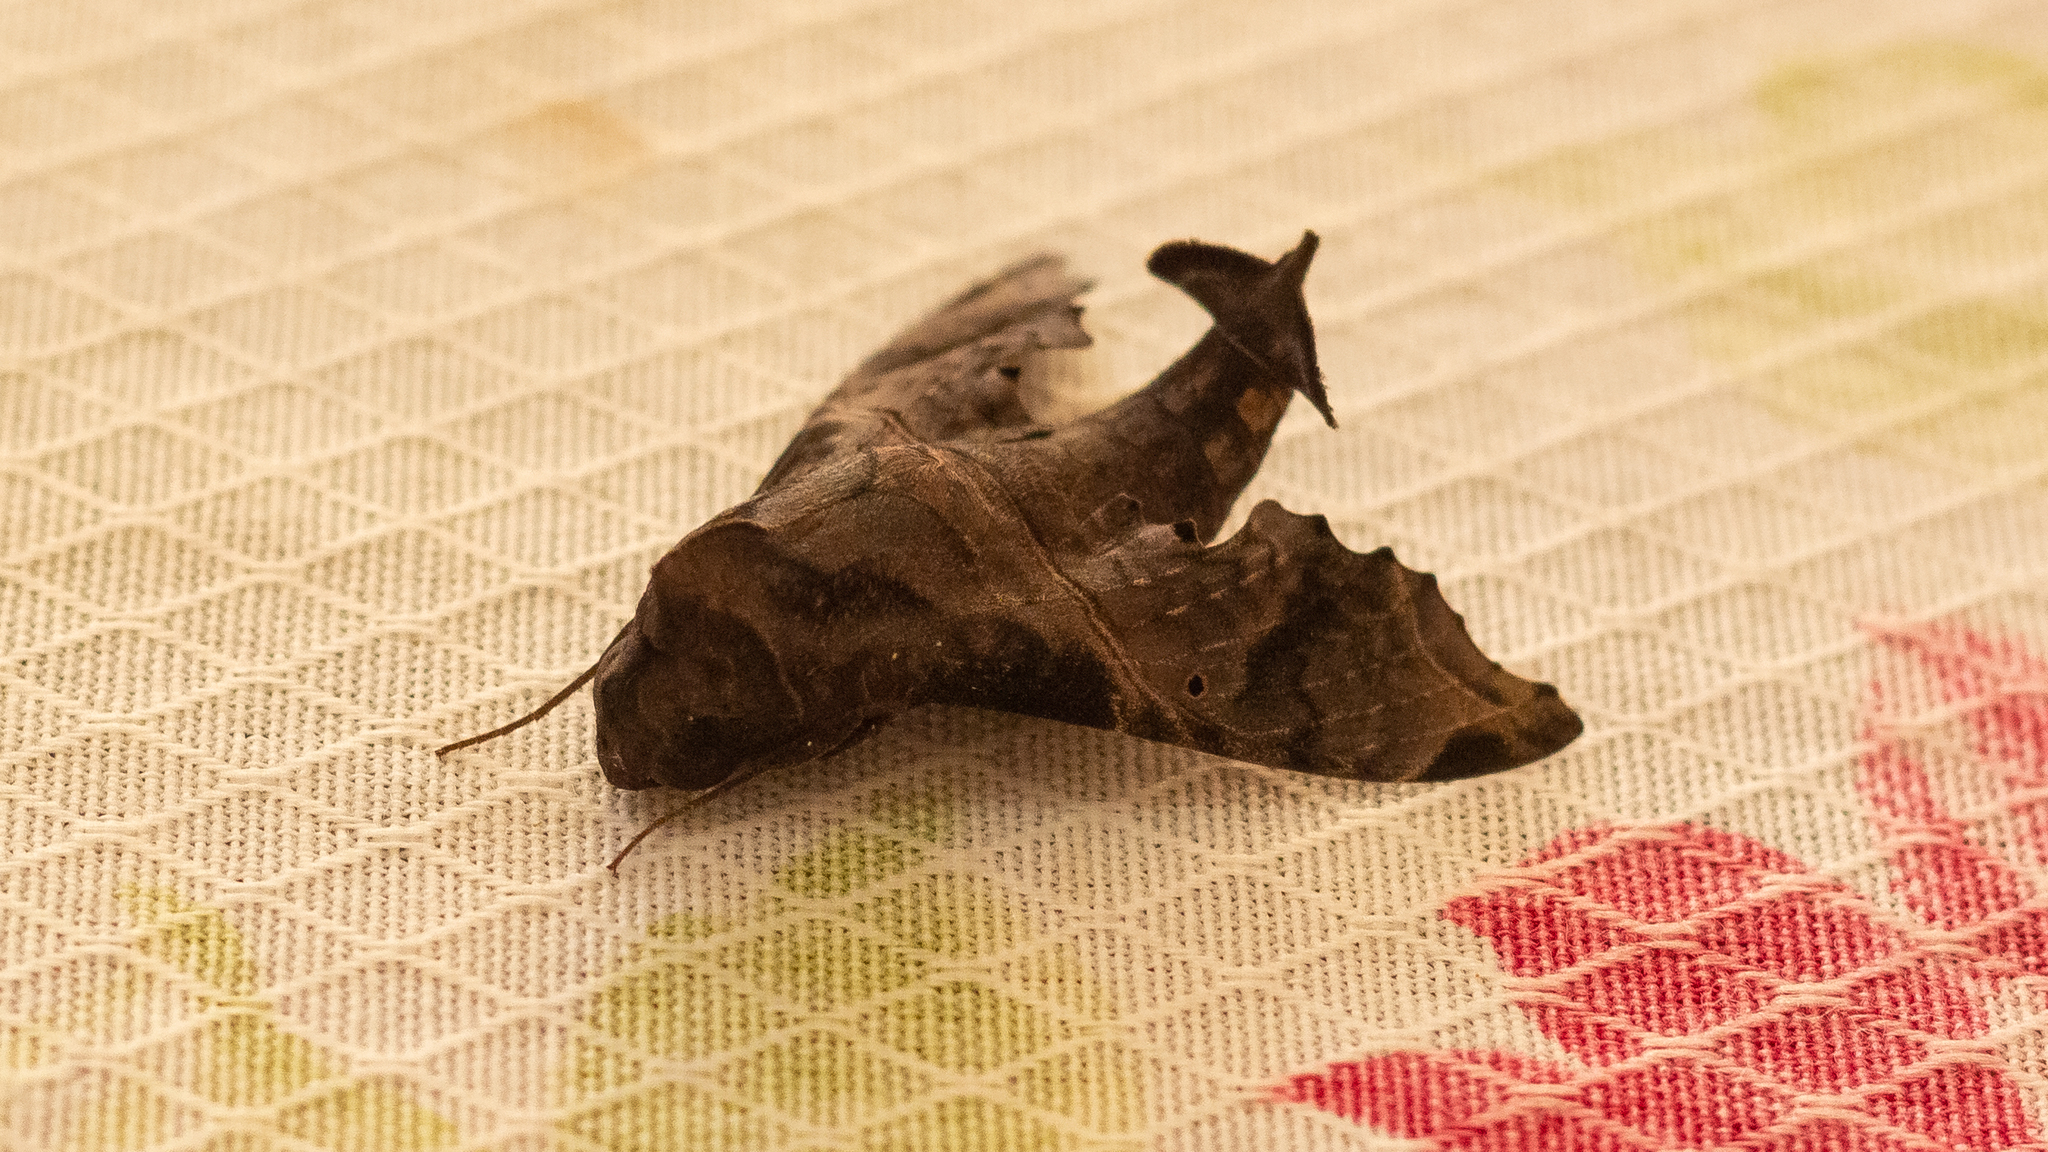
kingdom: Animalia
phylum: Arthropoda
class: Insecta
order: Lepidoptera
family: Sphingidae
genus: Enyo
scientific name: Enyo lugubris
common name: Mournful sphinx
